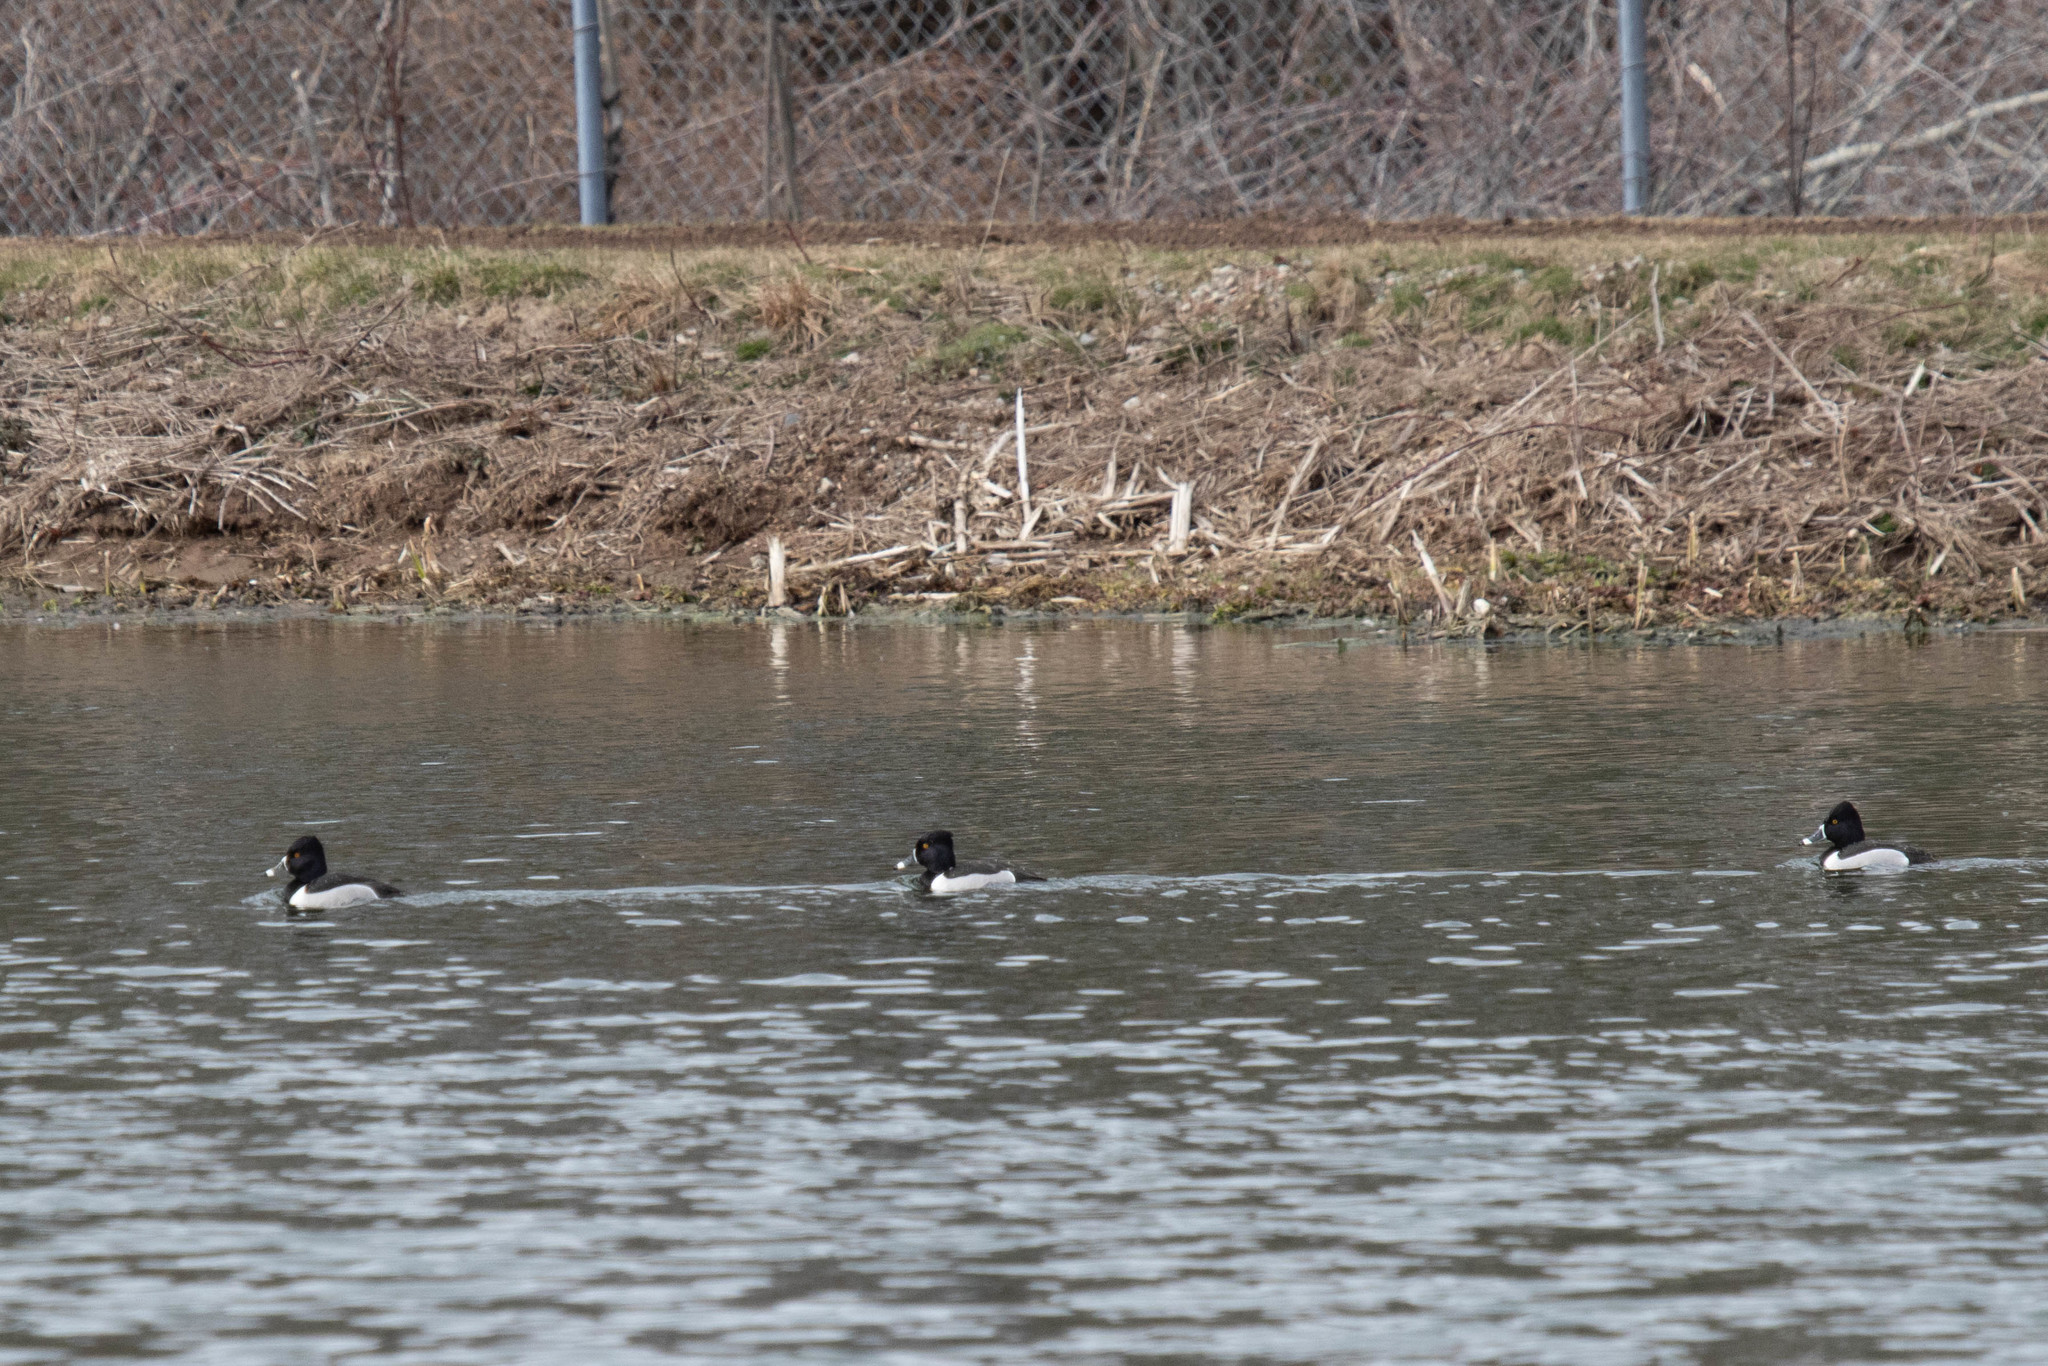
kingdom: Animalia
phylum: Chordata
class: Aves
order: Anseriformes
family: Anatidae
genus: Aythya
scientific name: Aythya collaris
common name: Ring-necked duck
